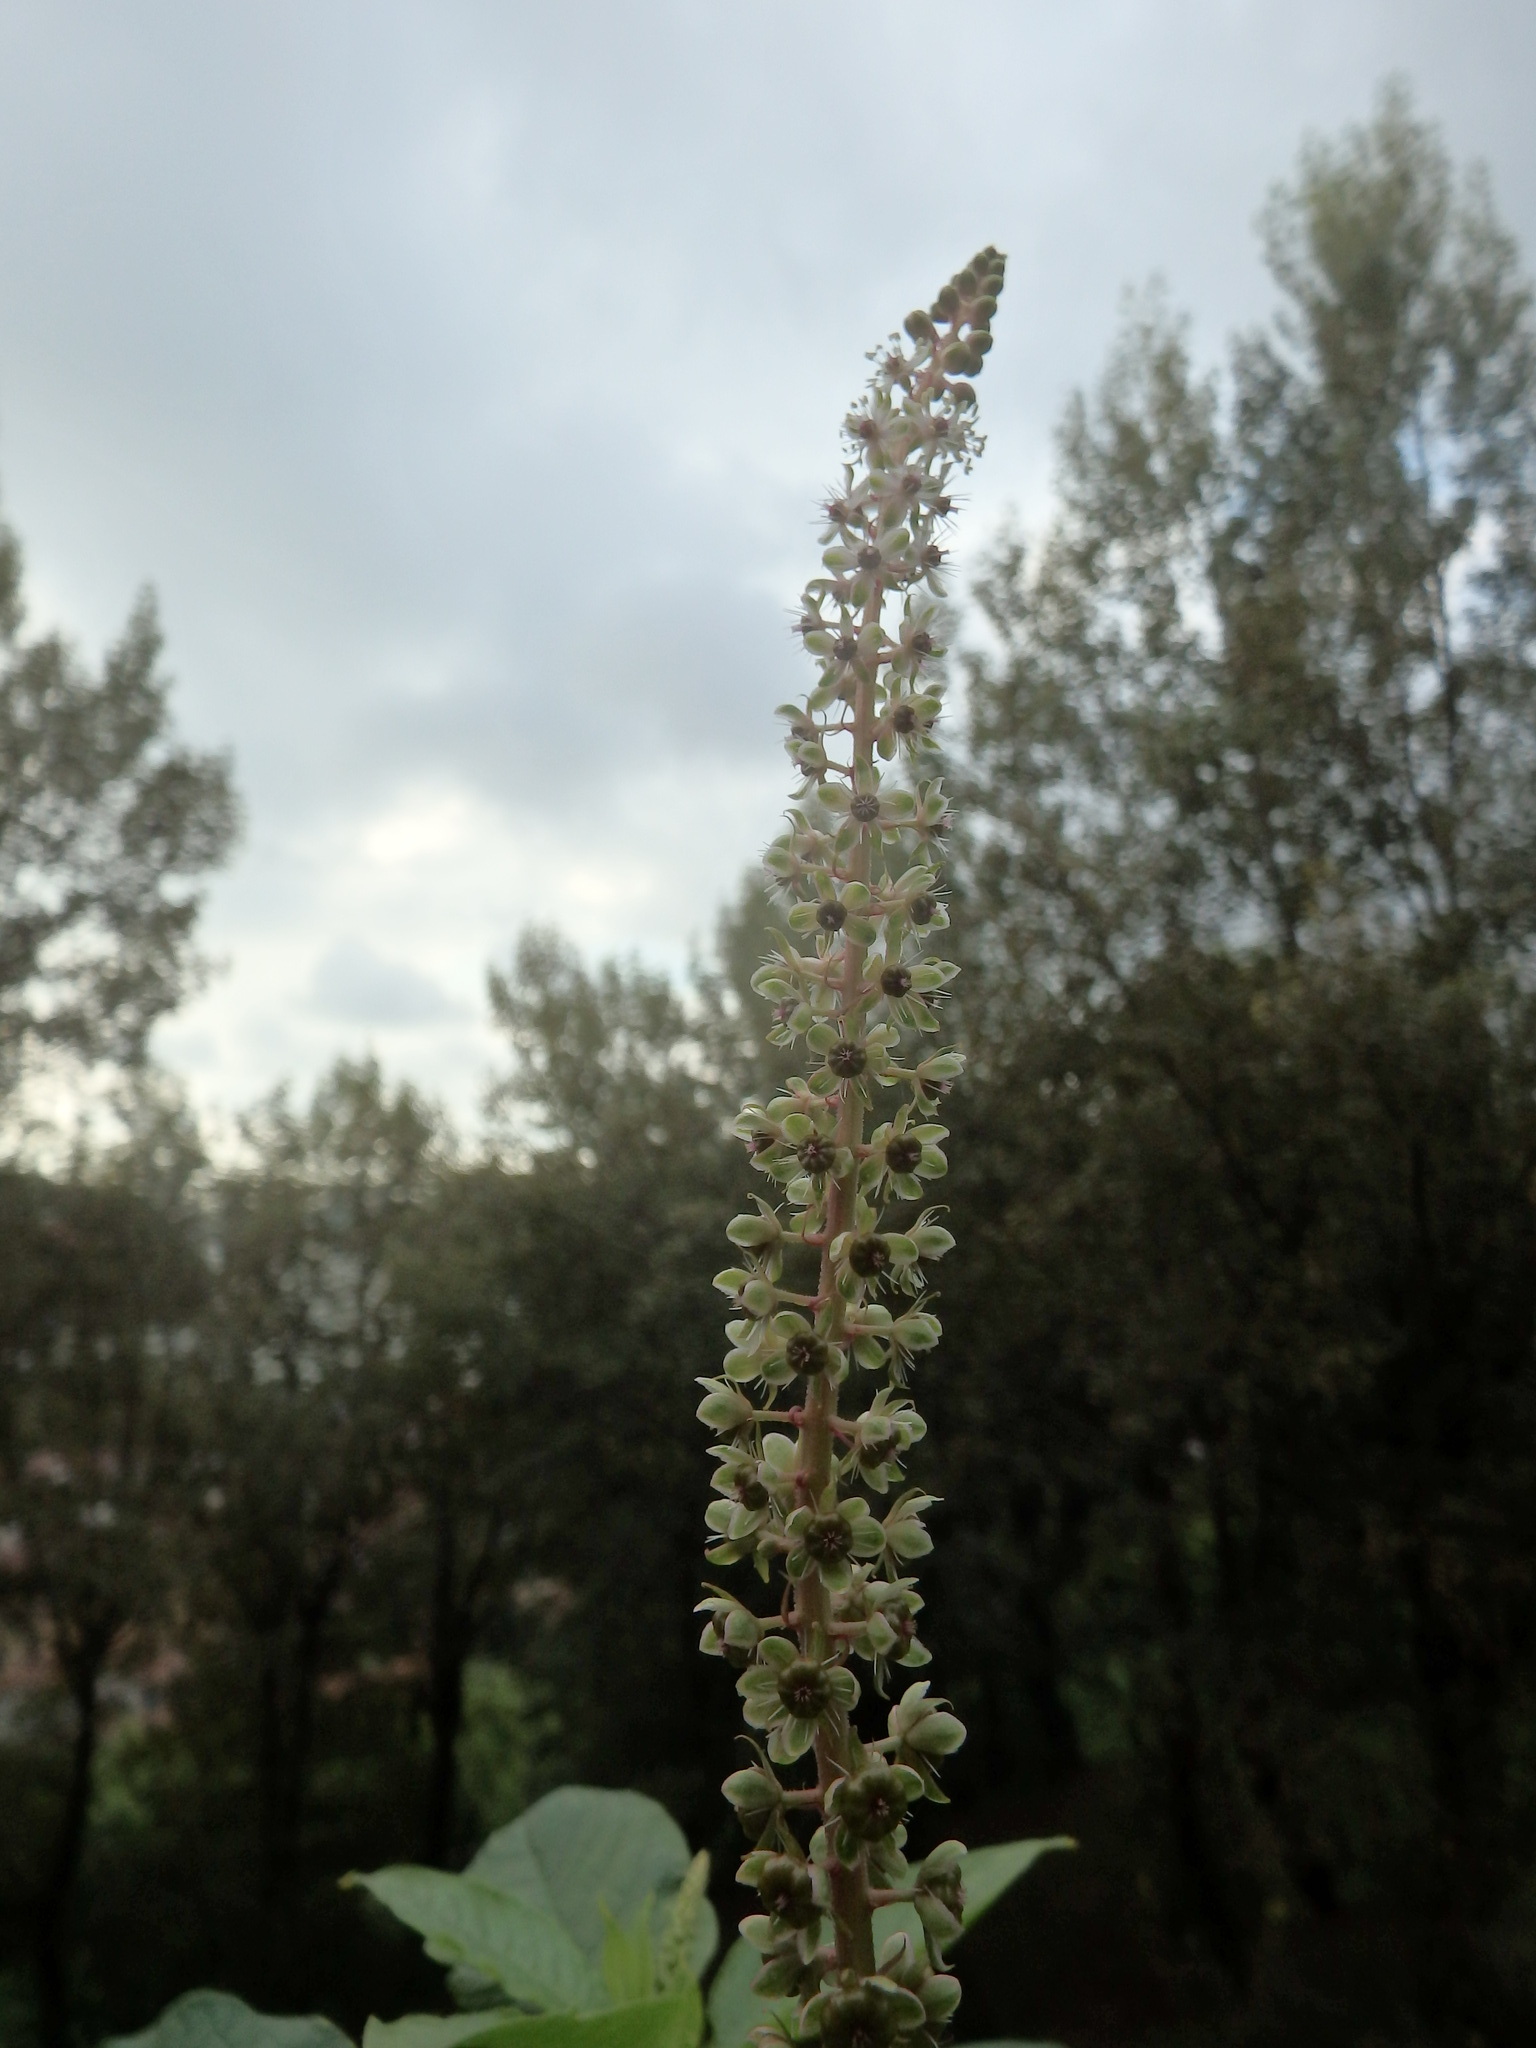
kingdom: Plantae
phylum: Tracheophyta
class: Magnoliopsida
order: Caryophyllales
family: Phytolaccaceae
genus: Phytolacca
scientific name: Phytolacca heterotepala
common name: Mexican pokeweed
